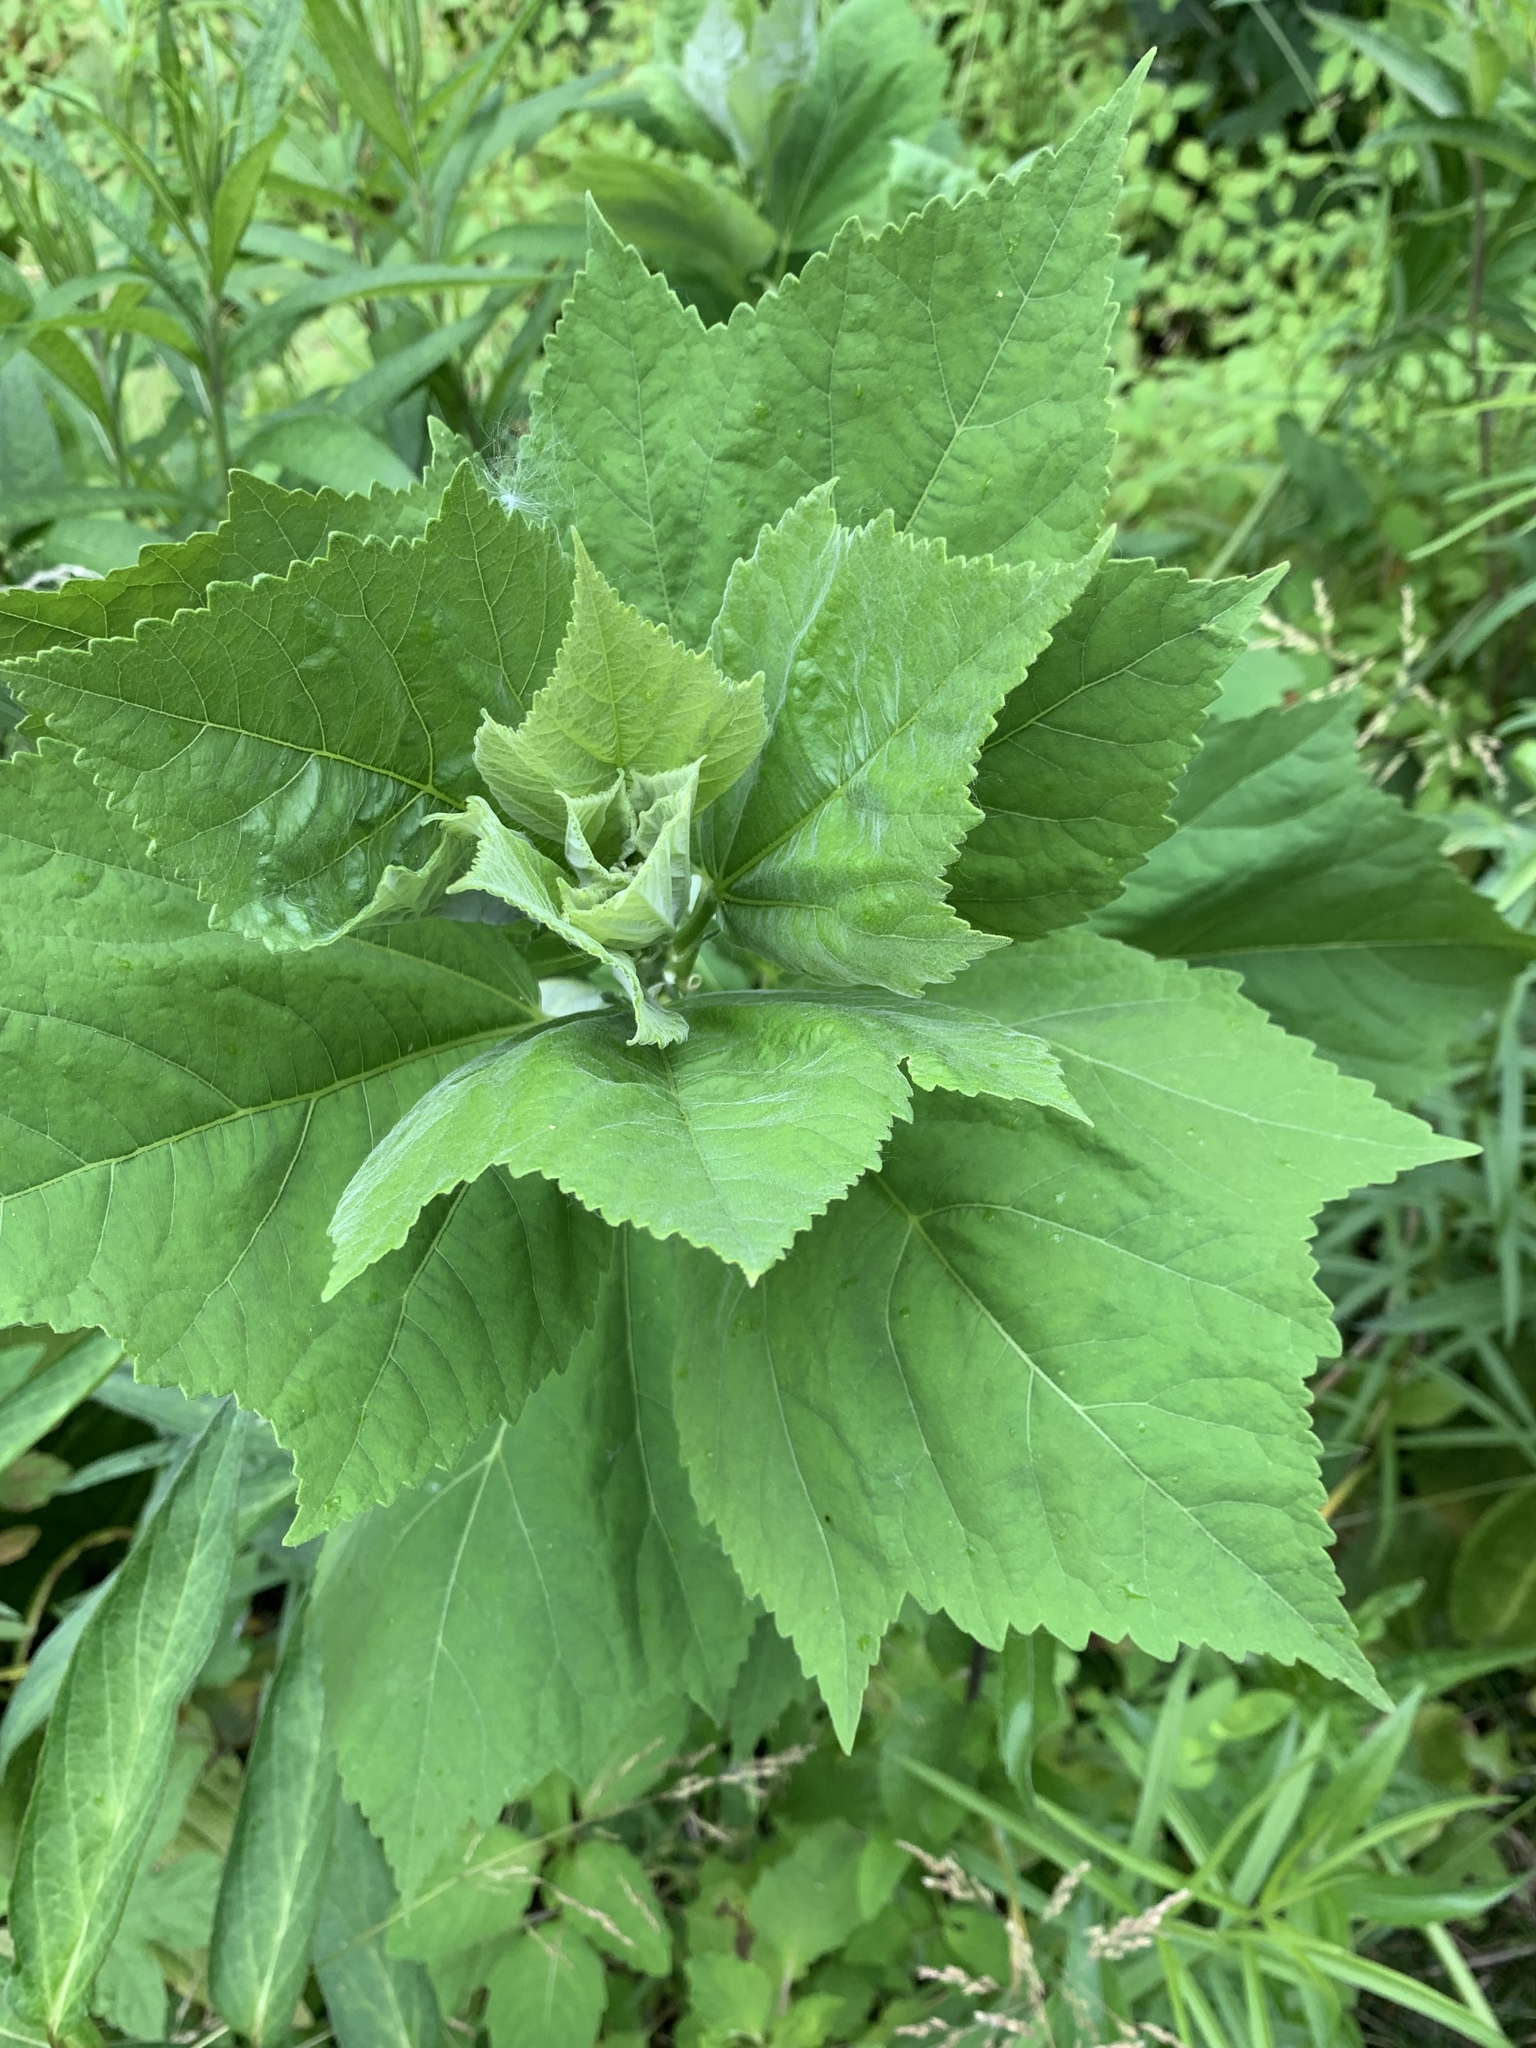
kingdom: Plantae
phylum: Tracheophyta
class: Magnoliopsida
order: Malvales
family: Malvaceae
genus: Hibiscus
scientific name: Hibiscus moscheutos
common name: Common rose-mallow
